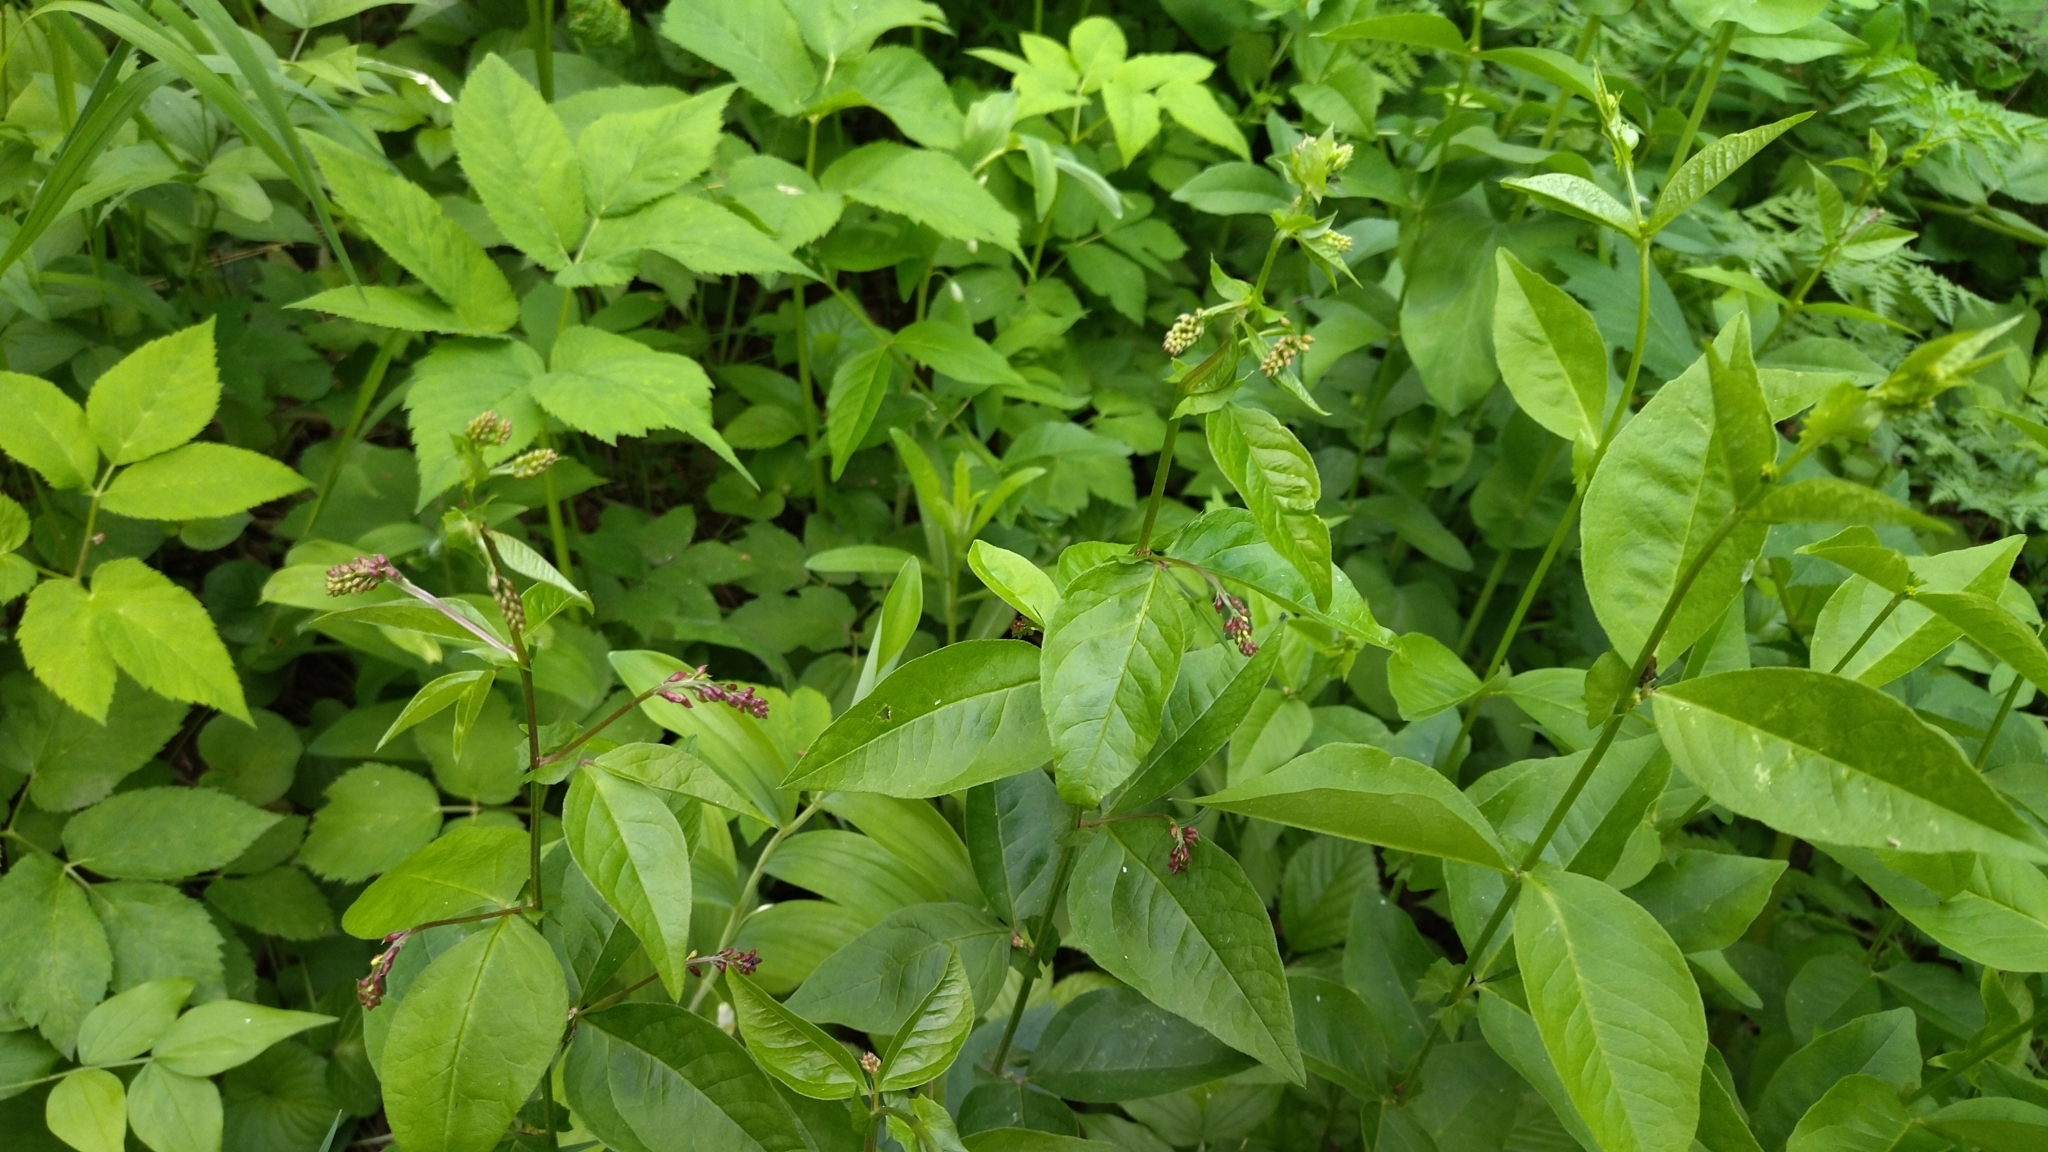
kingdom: Plantae
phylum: Tracheophyta
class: Magnoliopsida
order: Fabales
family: Fabaceae
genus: Vicia
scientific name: Vicia unijuga
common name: Two-leaf vetch
